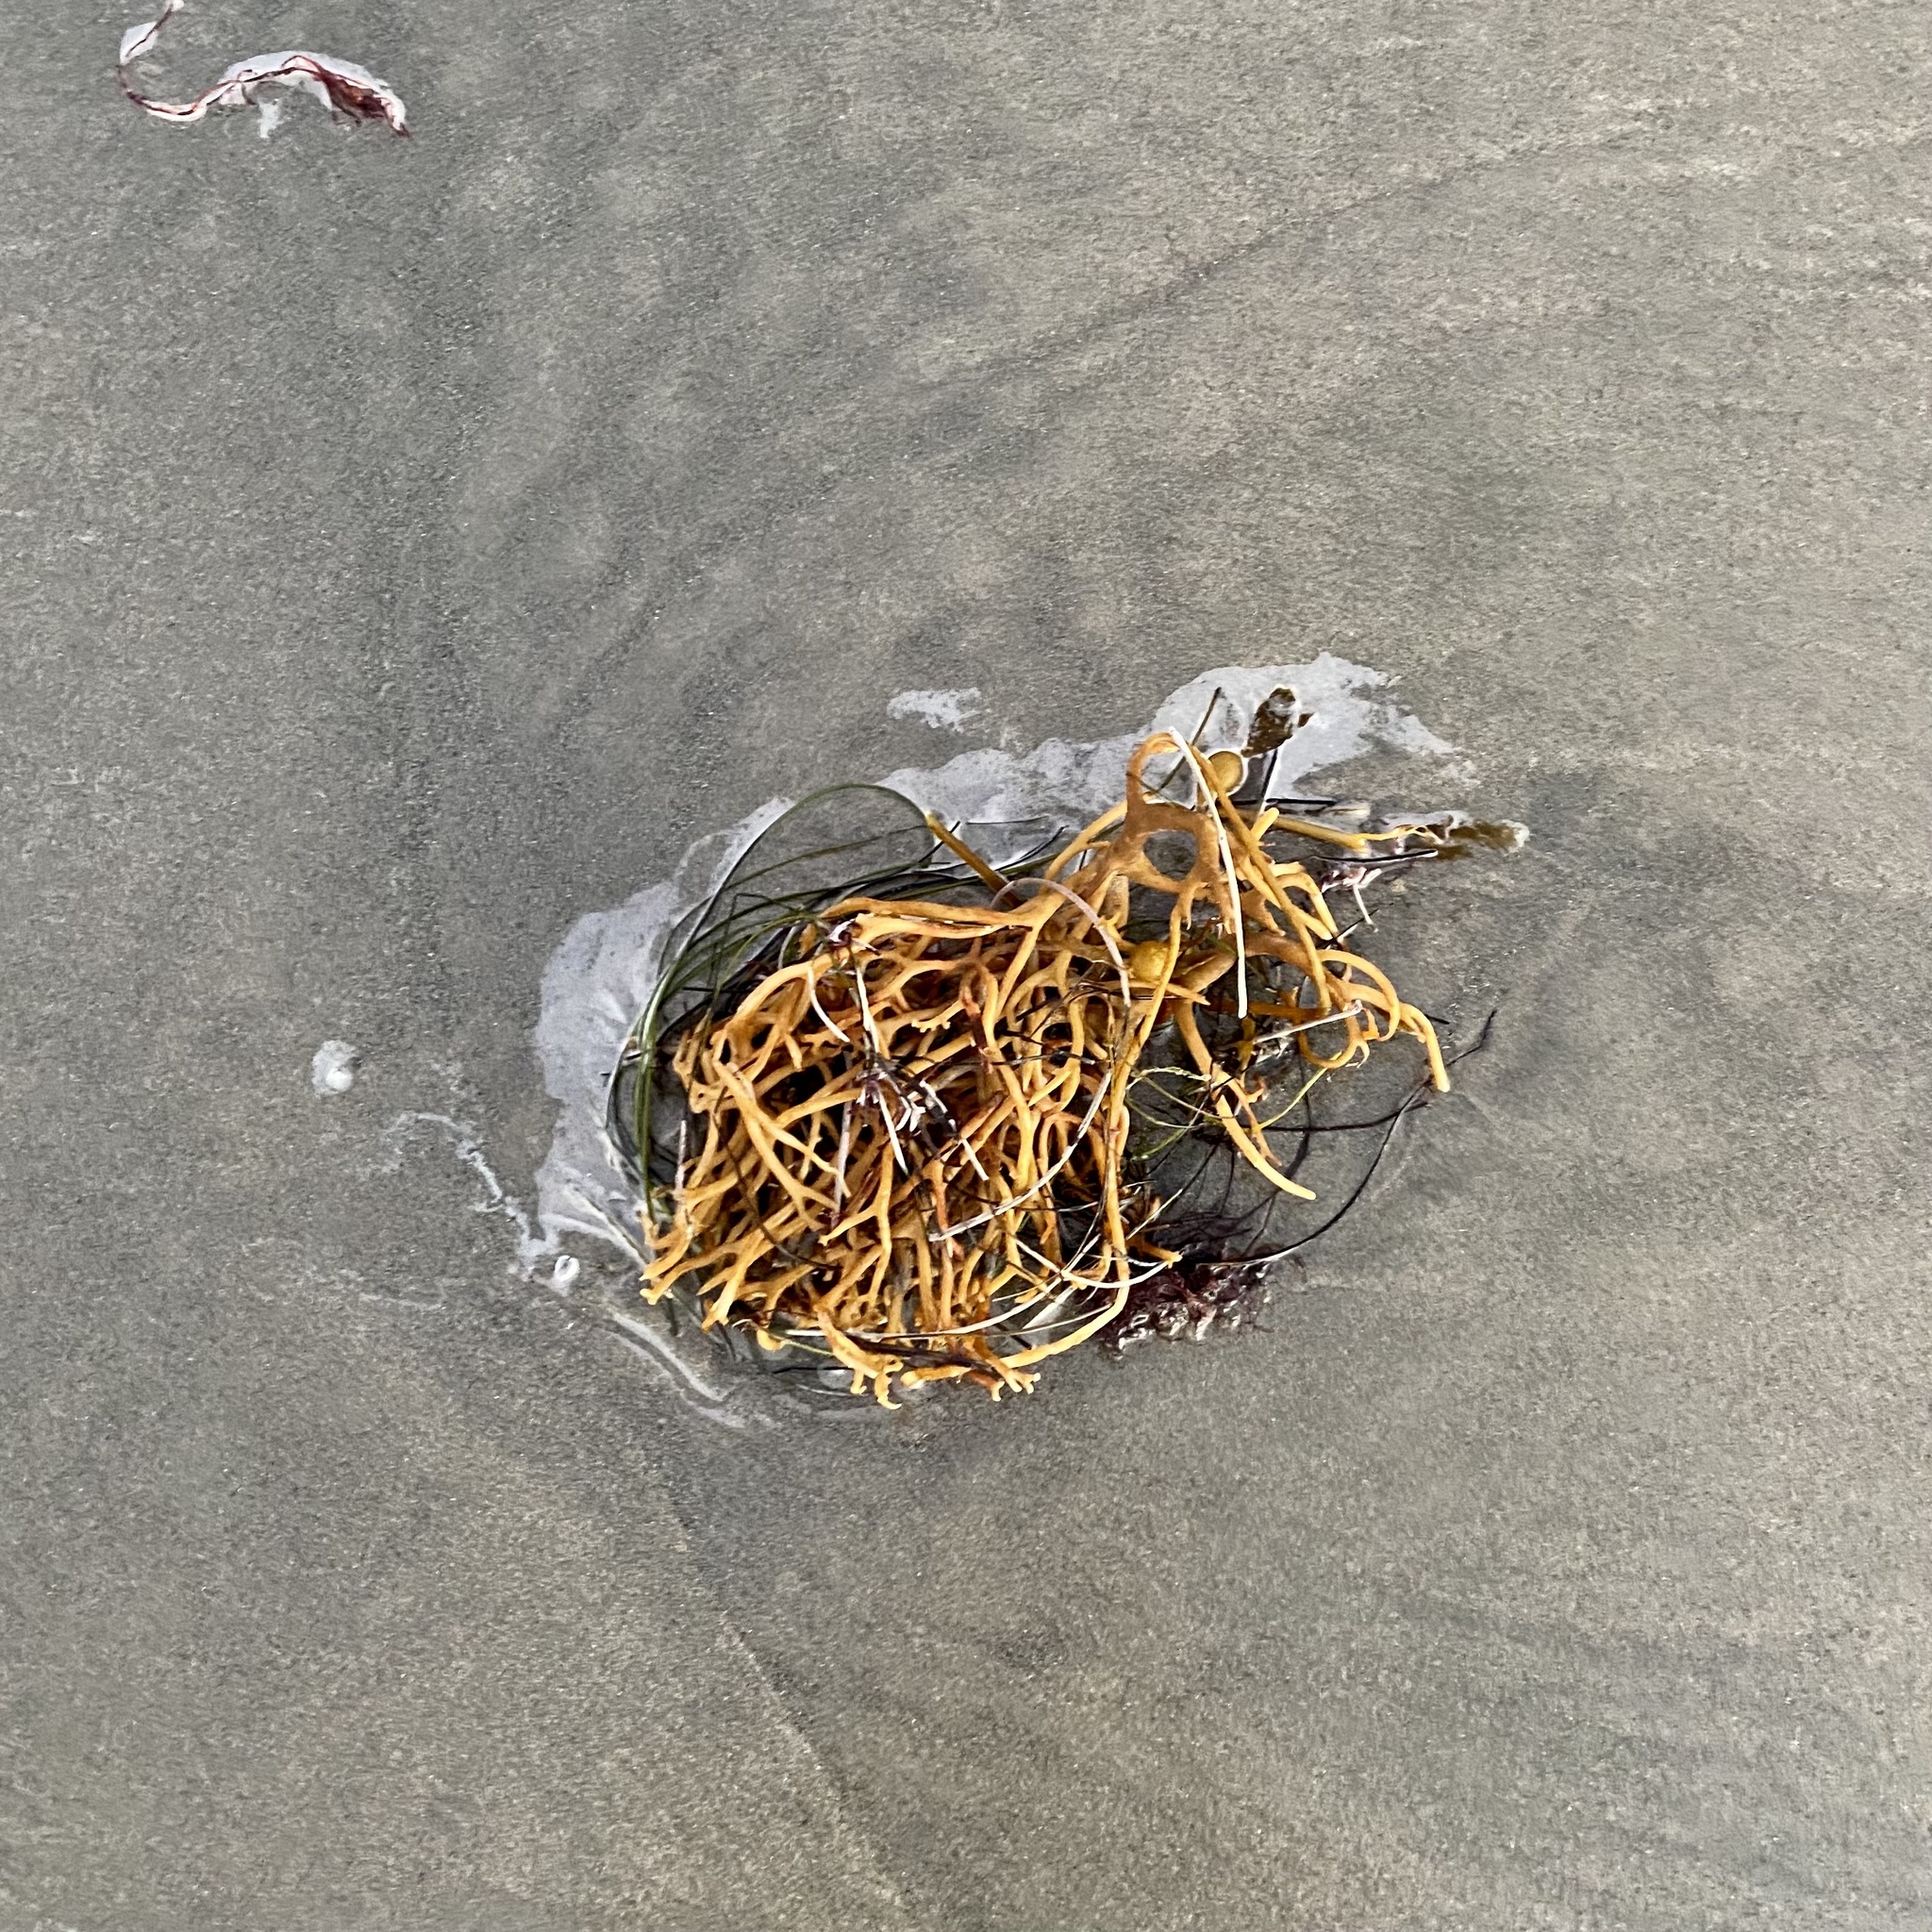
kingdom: Chromista
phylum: Ochrophyta
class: Phaeophyceae
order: Laminariales
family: Laminariaceae
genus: Macrocystis
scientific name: Macrocystis pyrifera
